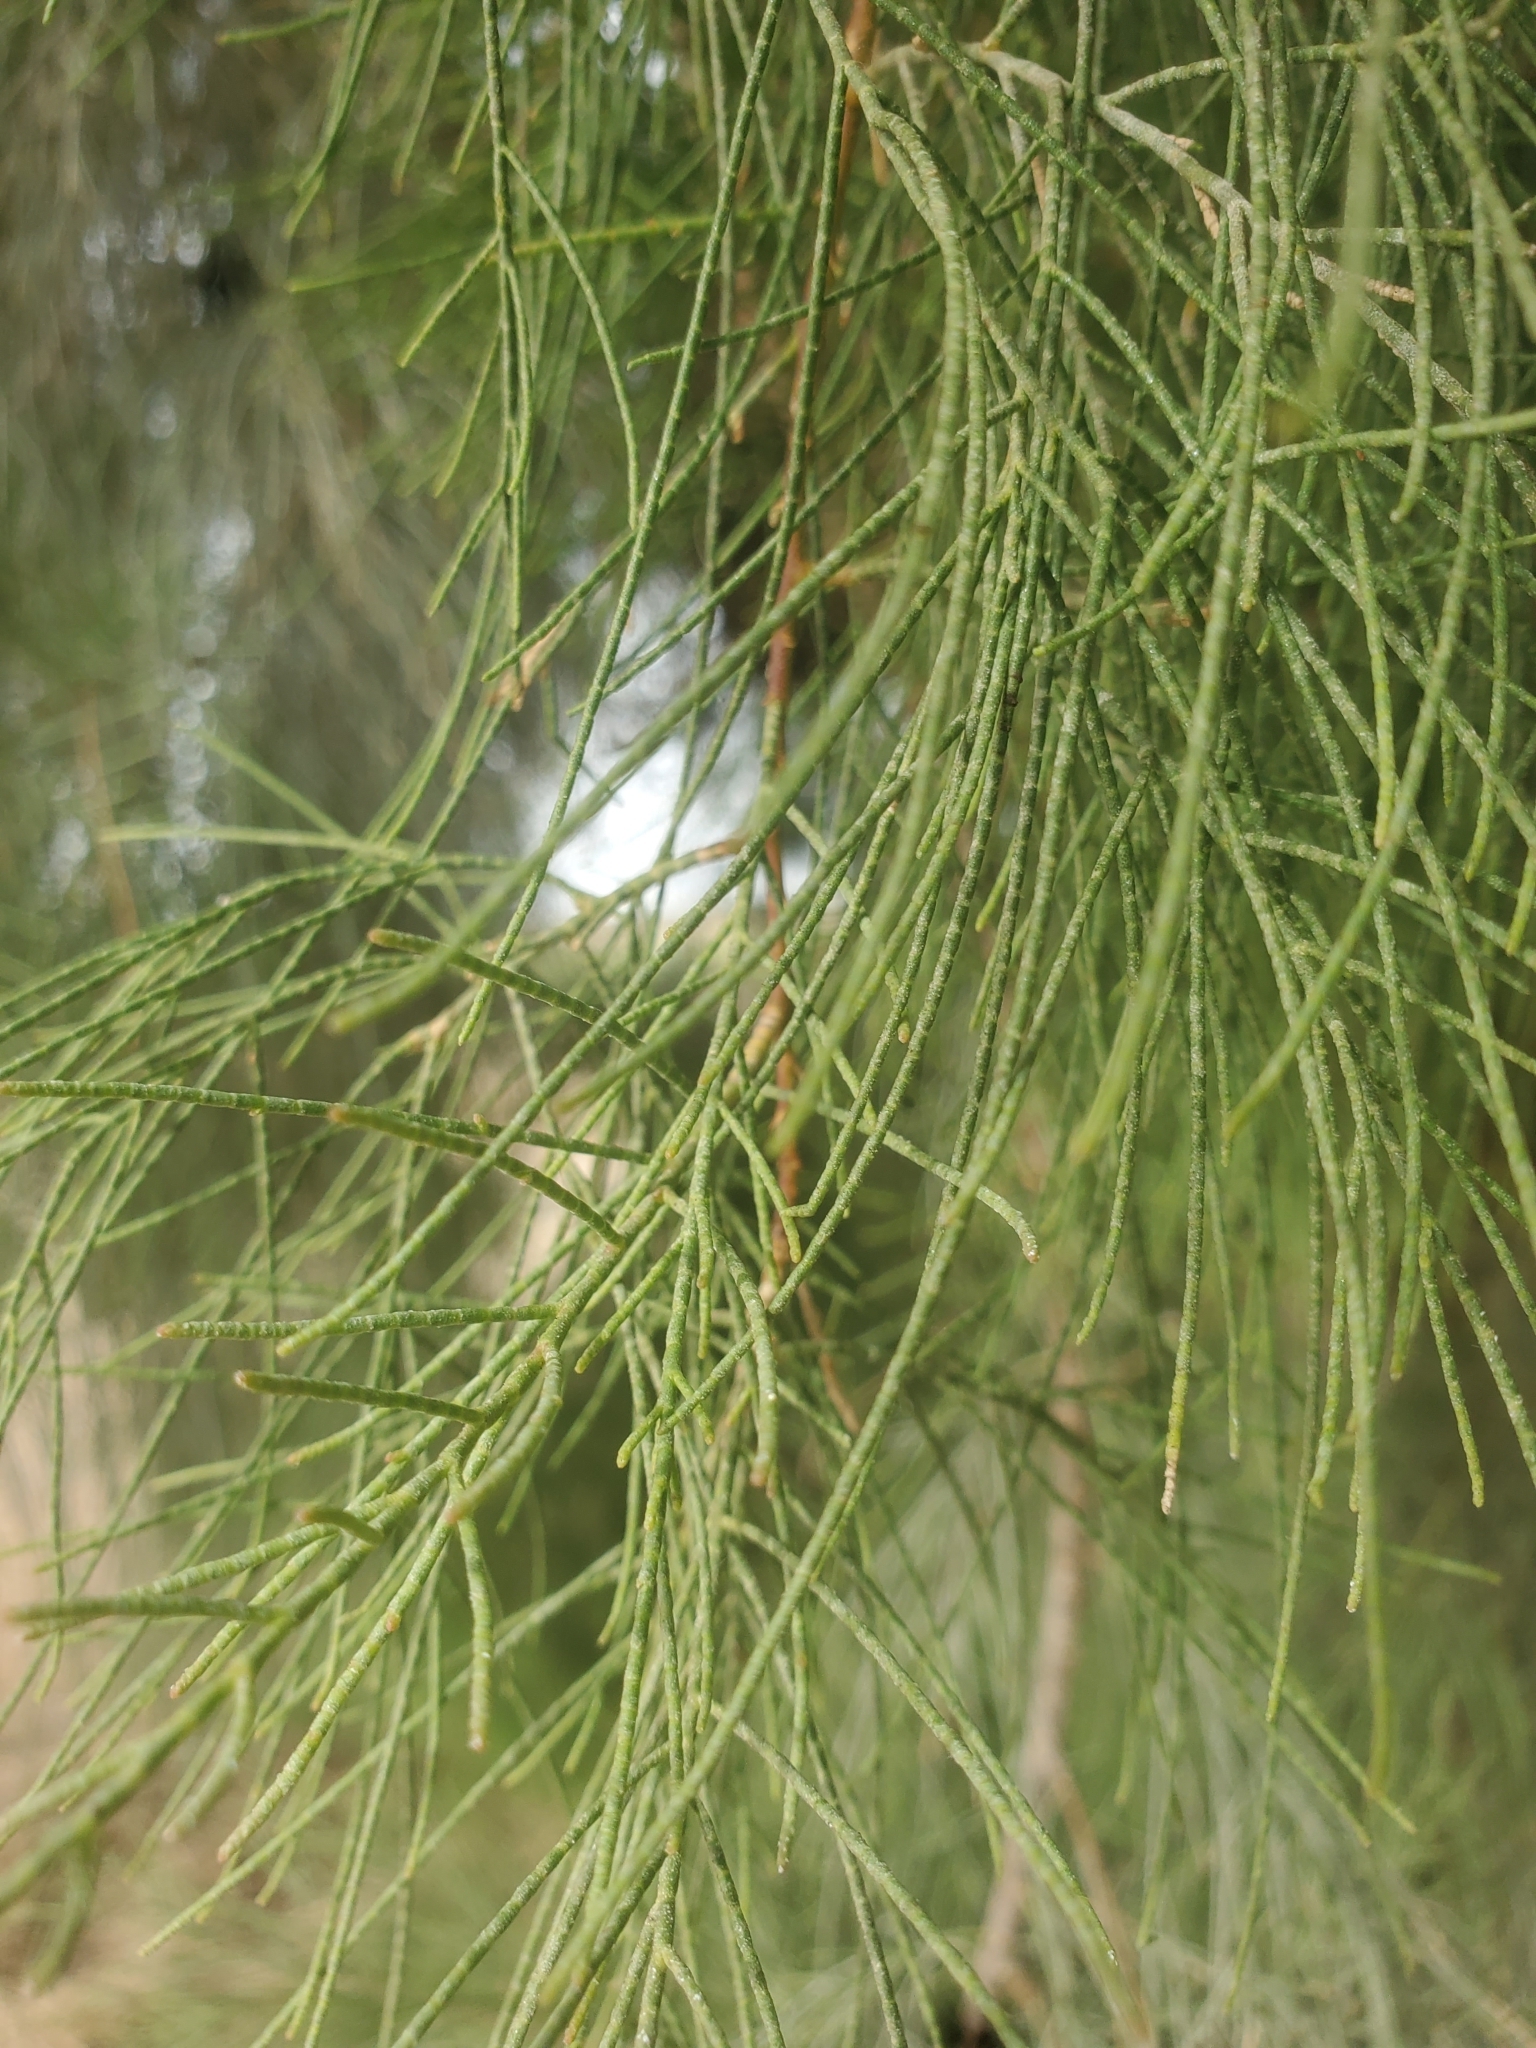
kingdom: Plantae
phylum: Tracheophyta
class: Magnoliopsida
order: Caryophyllales
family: Tamaricaceae
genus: Tamarix
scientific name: Tamarix aphylla
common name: Athel tamarisk
